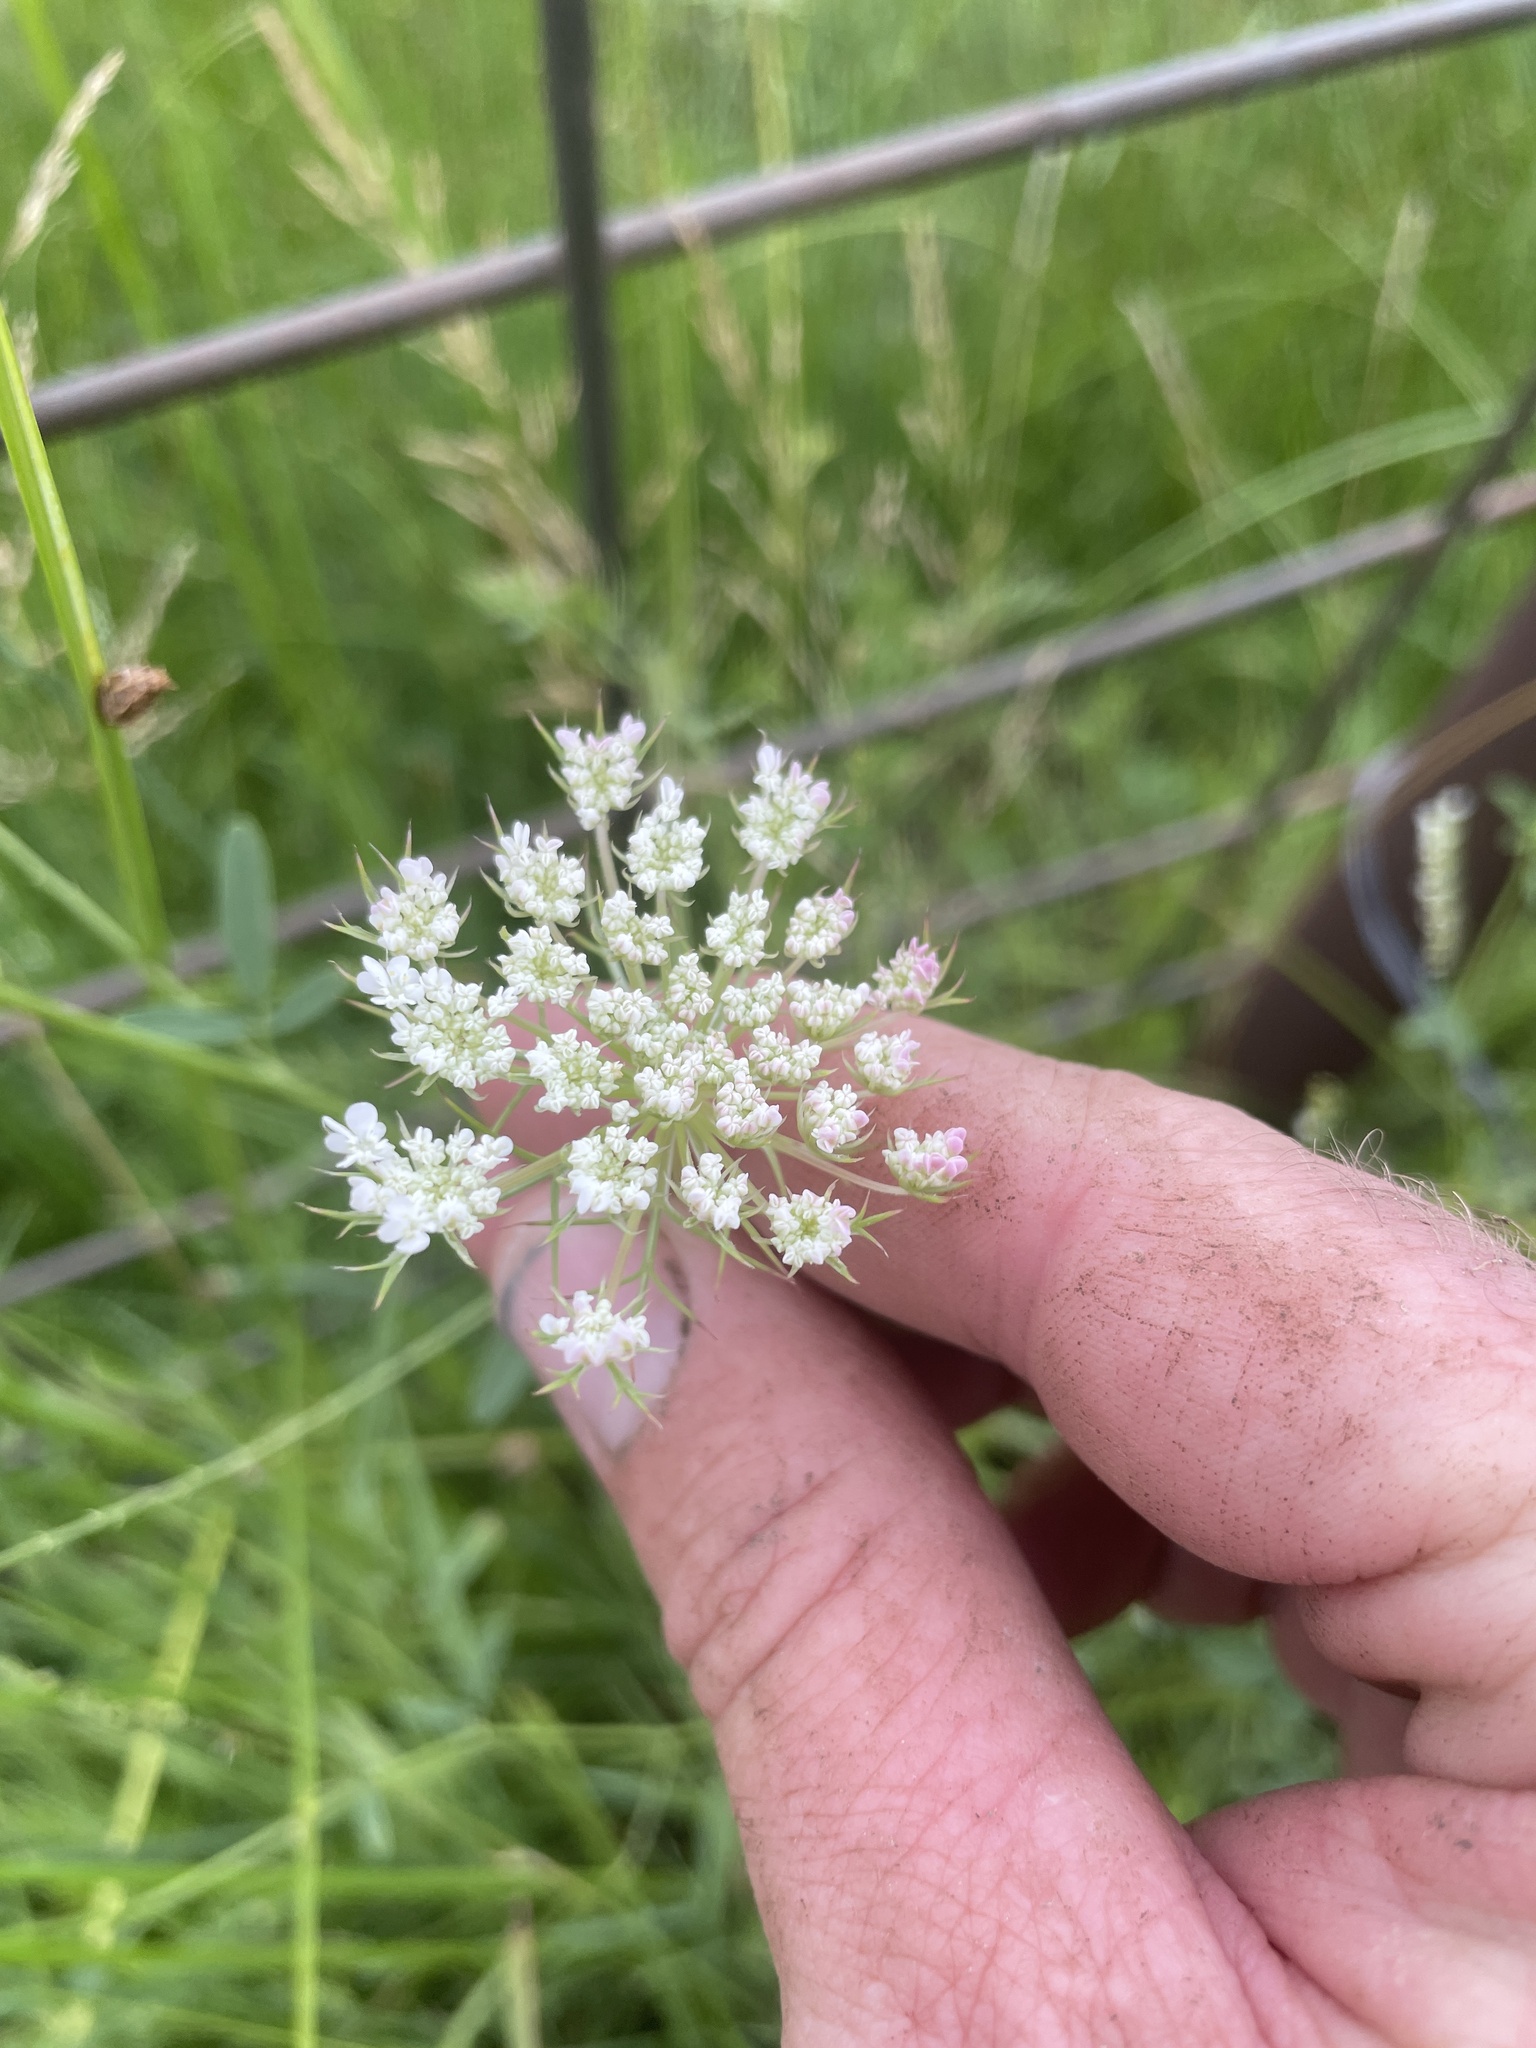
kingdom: Plantae
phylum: Tracheophyta
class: Magnoliopsida
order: Apiales
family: Apiaceae
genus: Daucus
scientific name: Daucus carota
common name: Wild carrot
